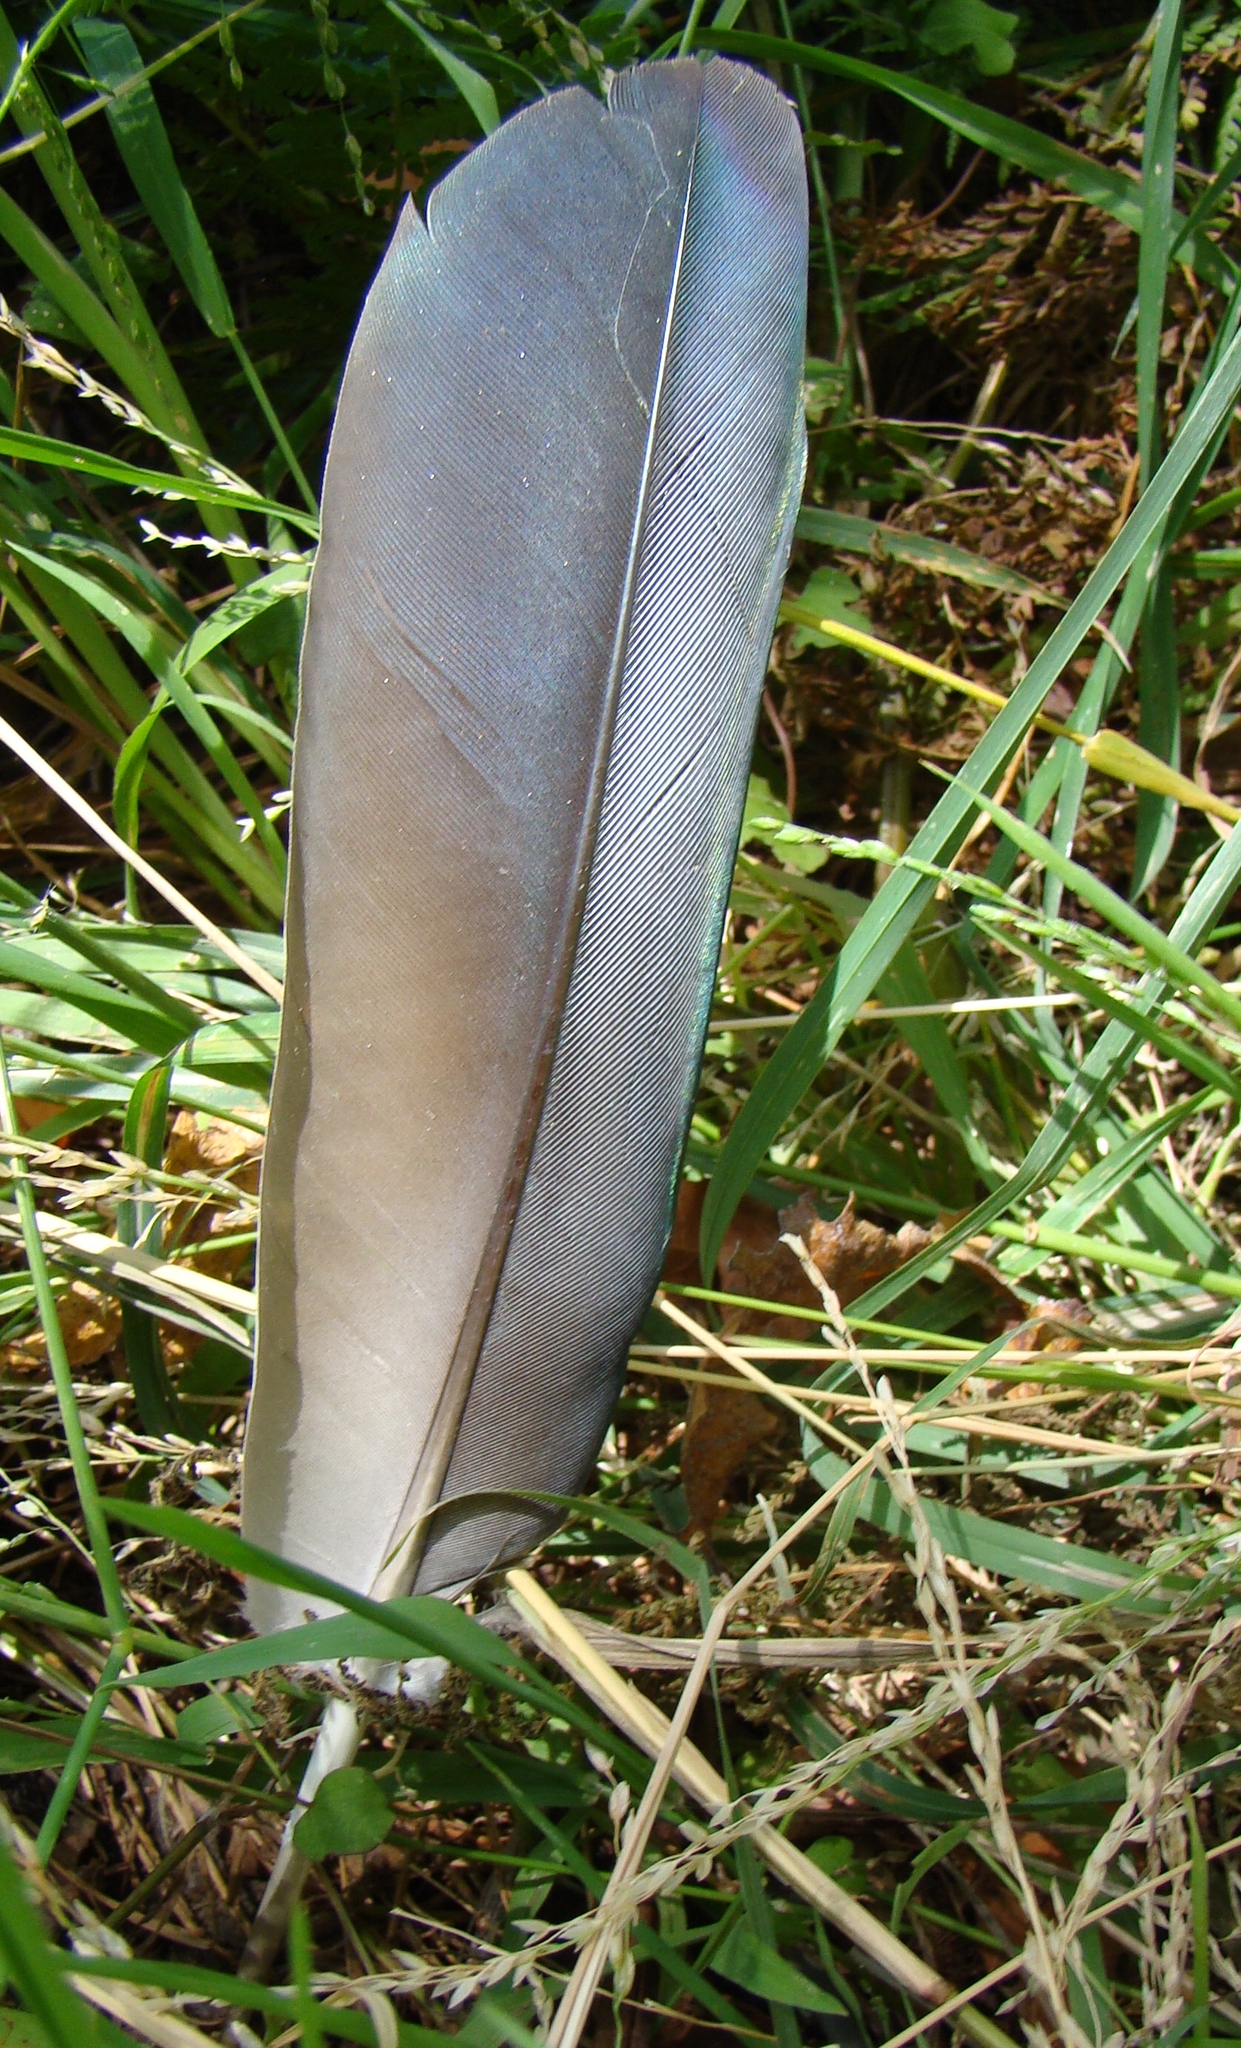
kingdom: Animalia
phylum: Chordata
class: Aves
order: Columbiformes
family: Columbidae
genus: Hemiphaga
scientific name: Hemiphaga novaeseelandiae
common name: New zealand pigeon
